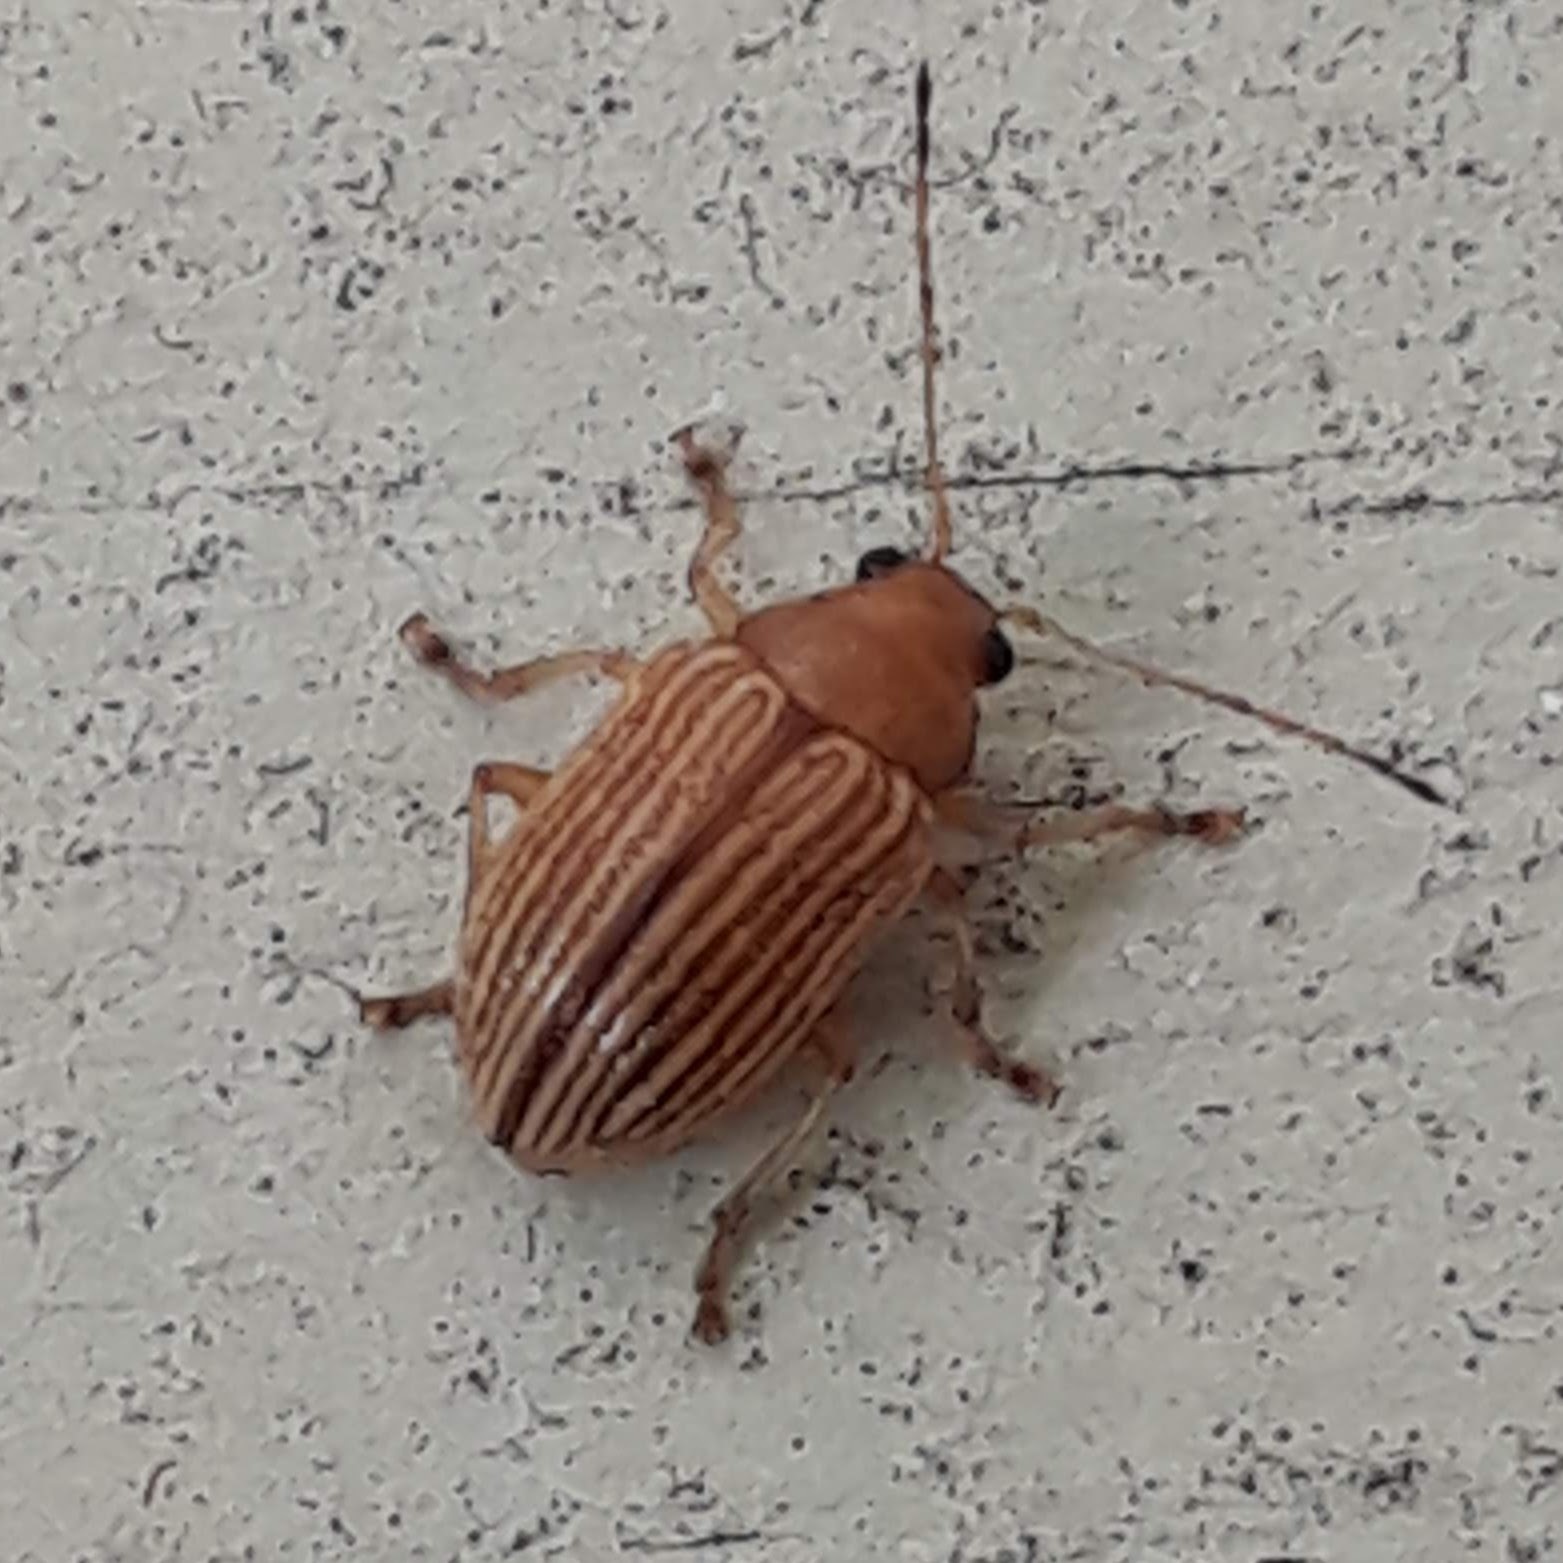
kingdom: Animalia
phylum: Arthropoda
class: Insecta
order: Coleoptera
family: Chrysomelidae
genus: Colaspis
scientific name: Colaspis brunnea
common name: Grape colaspis
